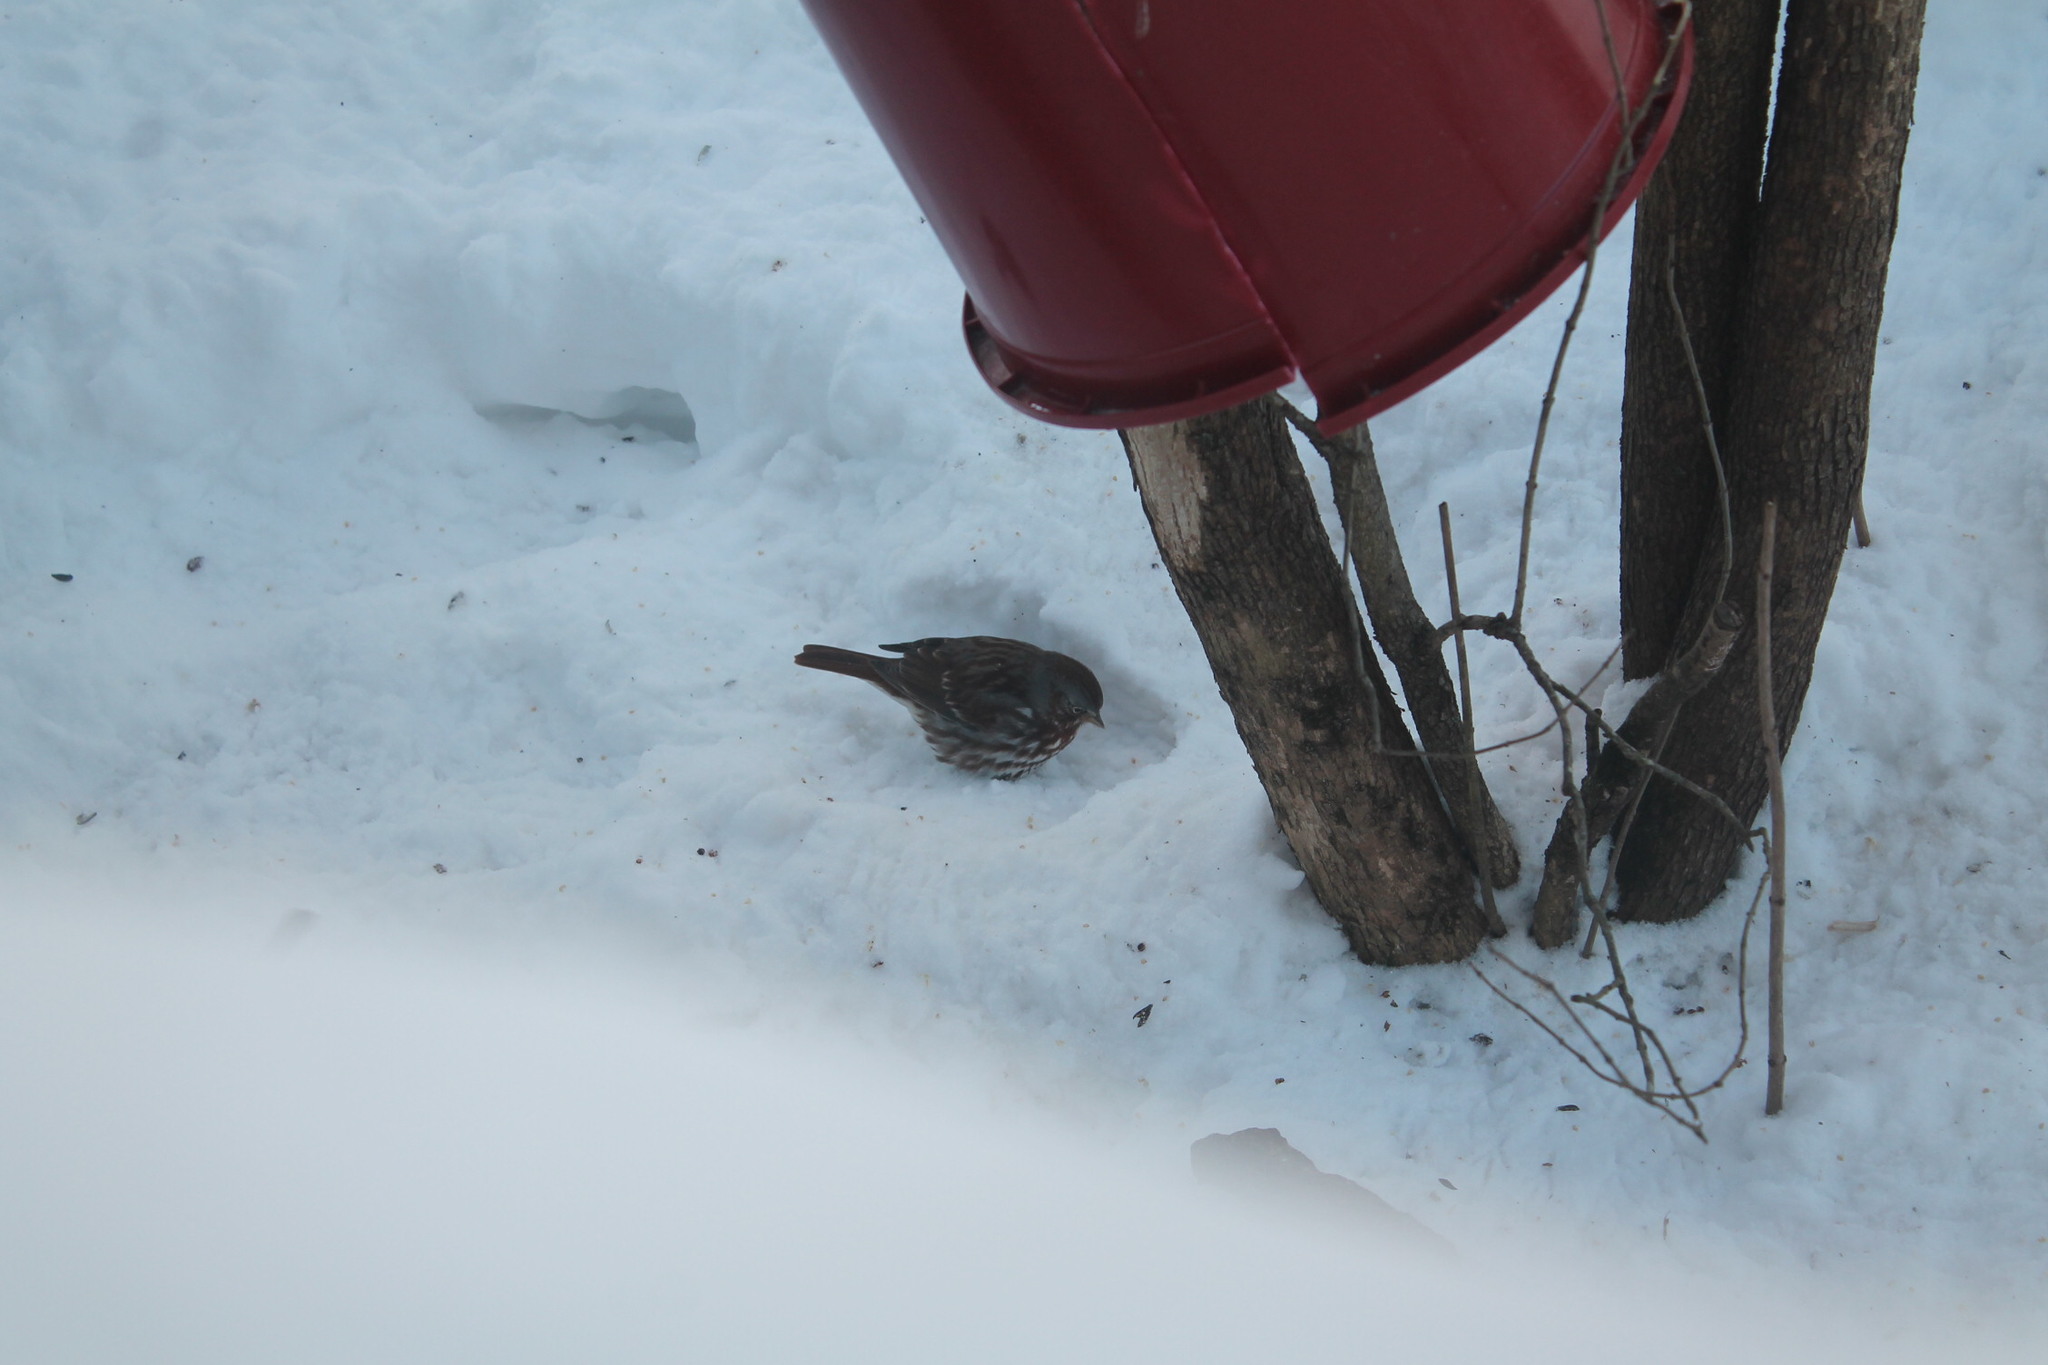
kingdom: Animalia
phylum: Chordata
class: Aves
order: Passeriformes
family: Passerellidae
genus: Passerella
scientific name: Passerella iliaca
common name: Fox sparrow
